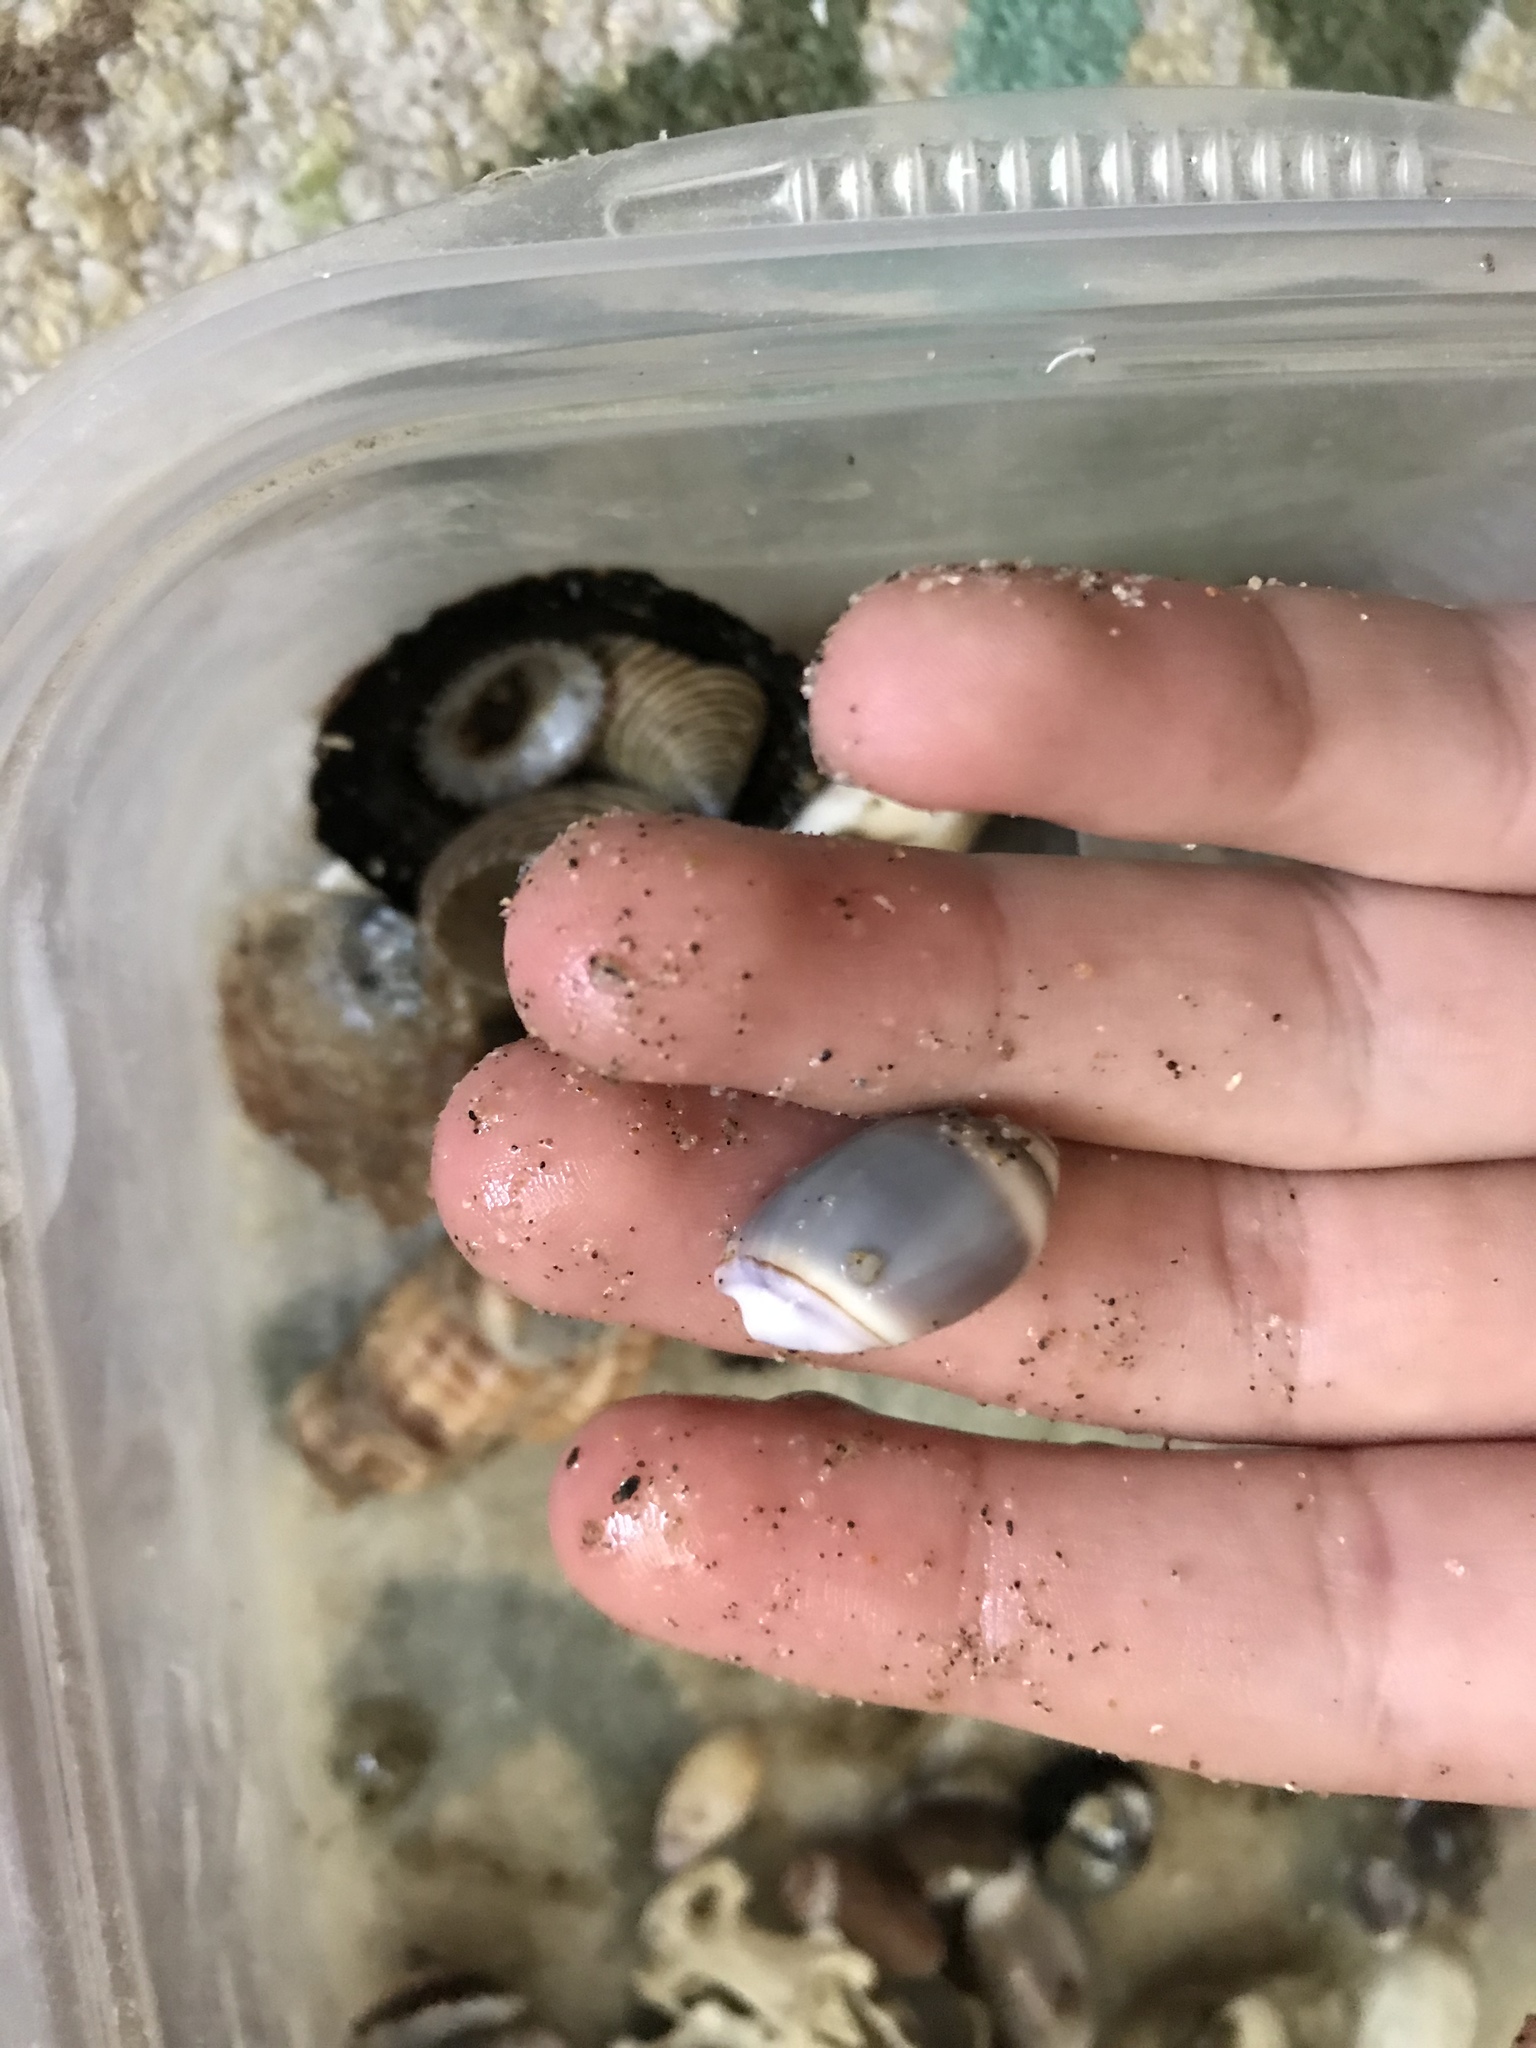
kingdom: Animalia
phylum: Mollusca
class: Gastropoda
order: Neogastropoda
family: Olividae
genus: Callianax
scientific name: Callianax biplicata
